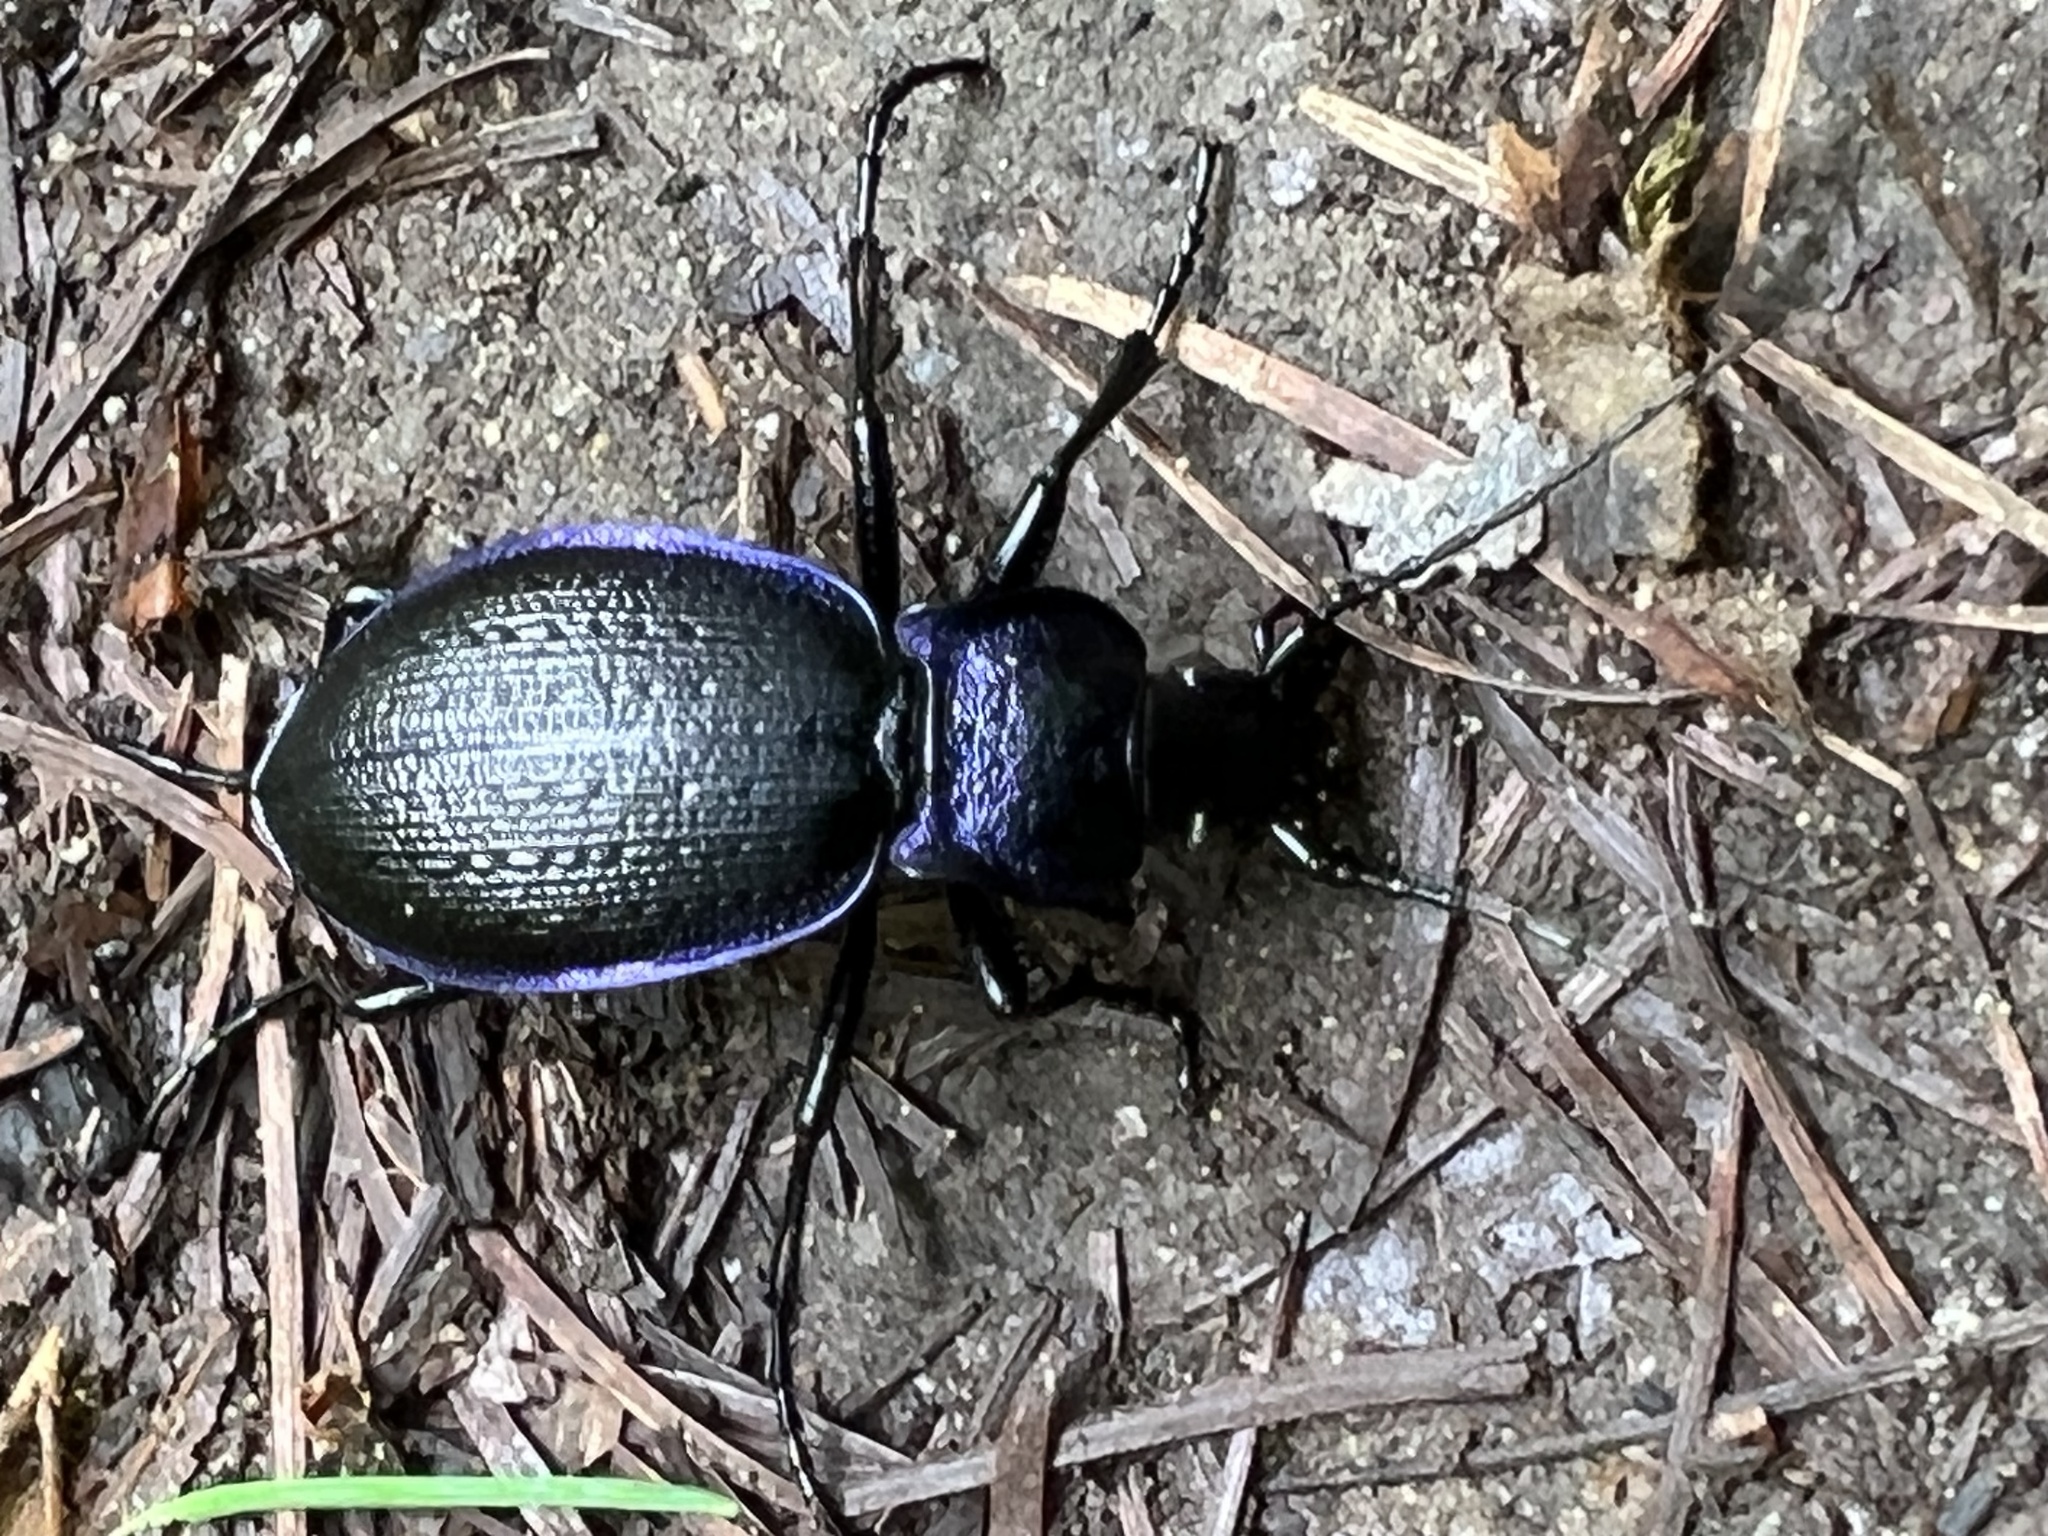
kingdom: Animalia
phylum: Arthropoda
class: Insecta
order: Coleoptera
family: Carabidae
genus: Carabus
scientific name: Carabus problematicus
